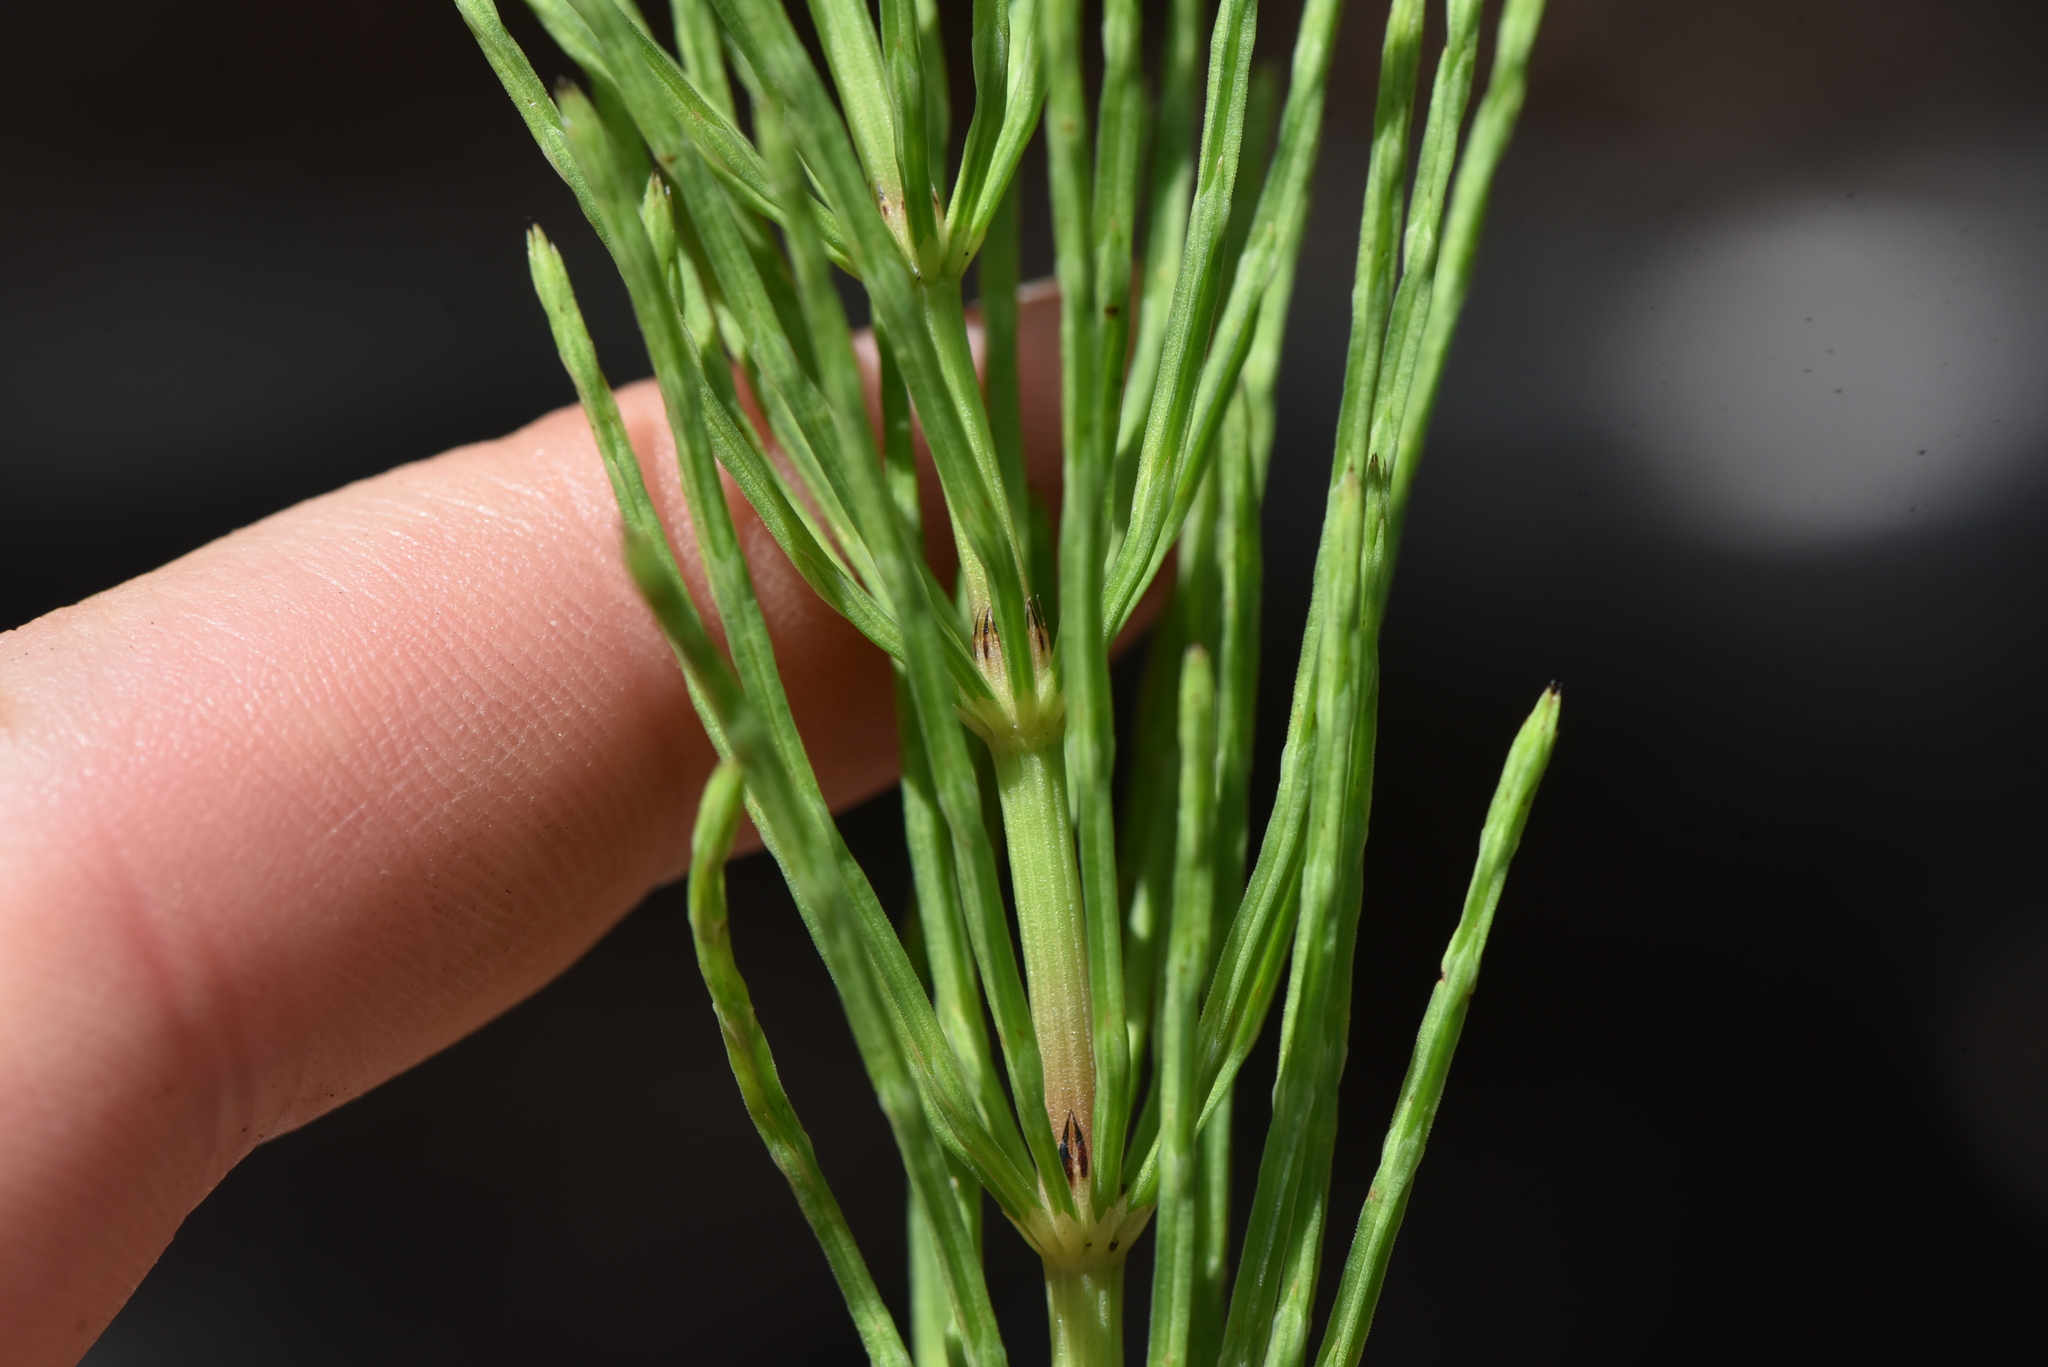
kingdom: Plantae
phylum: Tracheophyta
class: Polypodiopsida
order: Equisetales
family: Equisetaceae
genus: Equisetum
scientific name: Equisetum arvense
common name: Field horsetail
